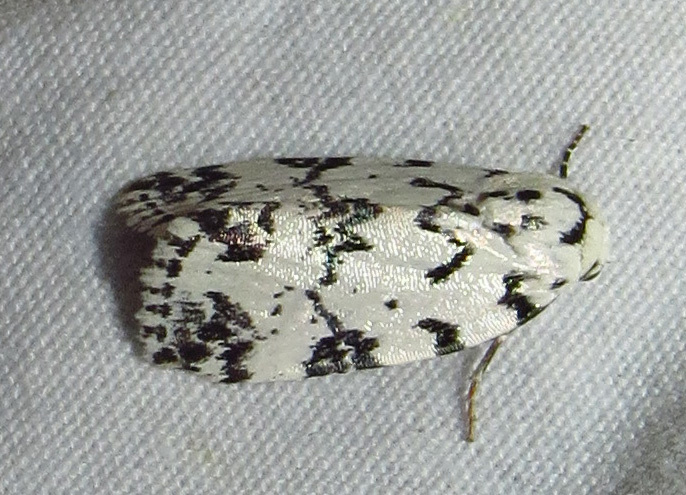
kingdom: Animalia
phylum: Arthropoda
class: Insecta
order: Lepidoptera
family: Noctuidae
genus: Polygrammate
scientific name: Polygrammate hebraeicum
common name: Hebrew moth
